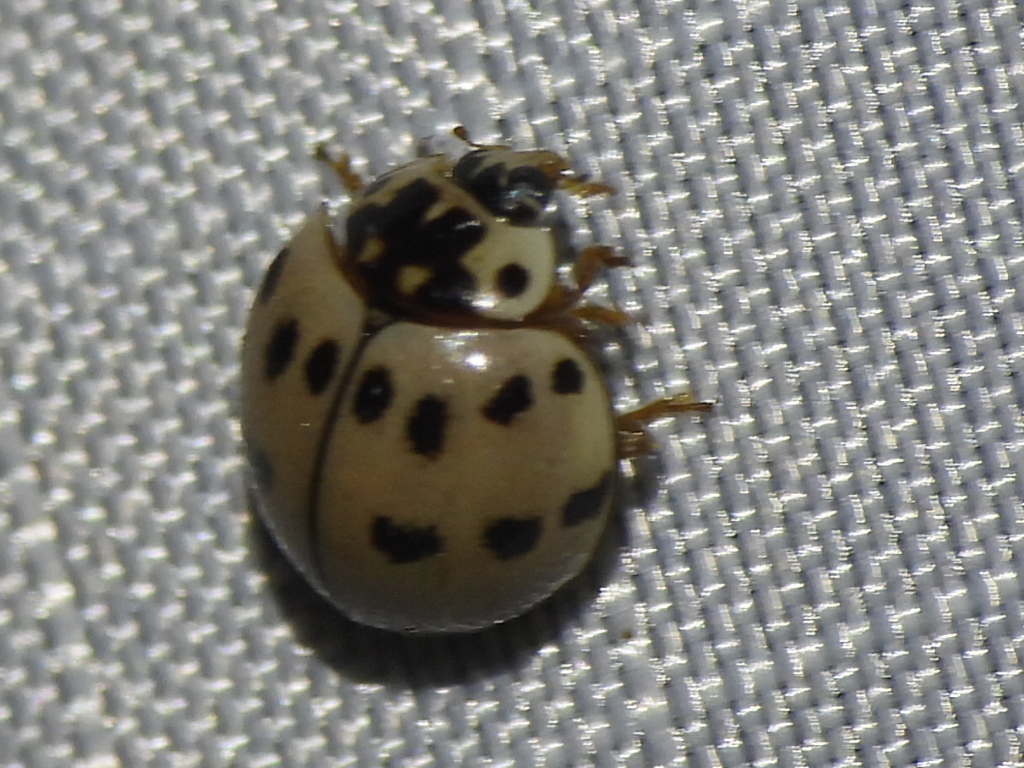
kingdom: Animalia
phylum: Arthropoda
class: Insecta
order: Coleoptera
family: Coccinellidae
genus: Olla
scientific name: Olla v-nigrum
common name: Ashy gray lady beetle
